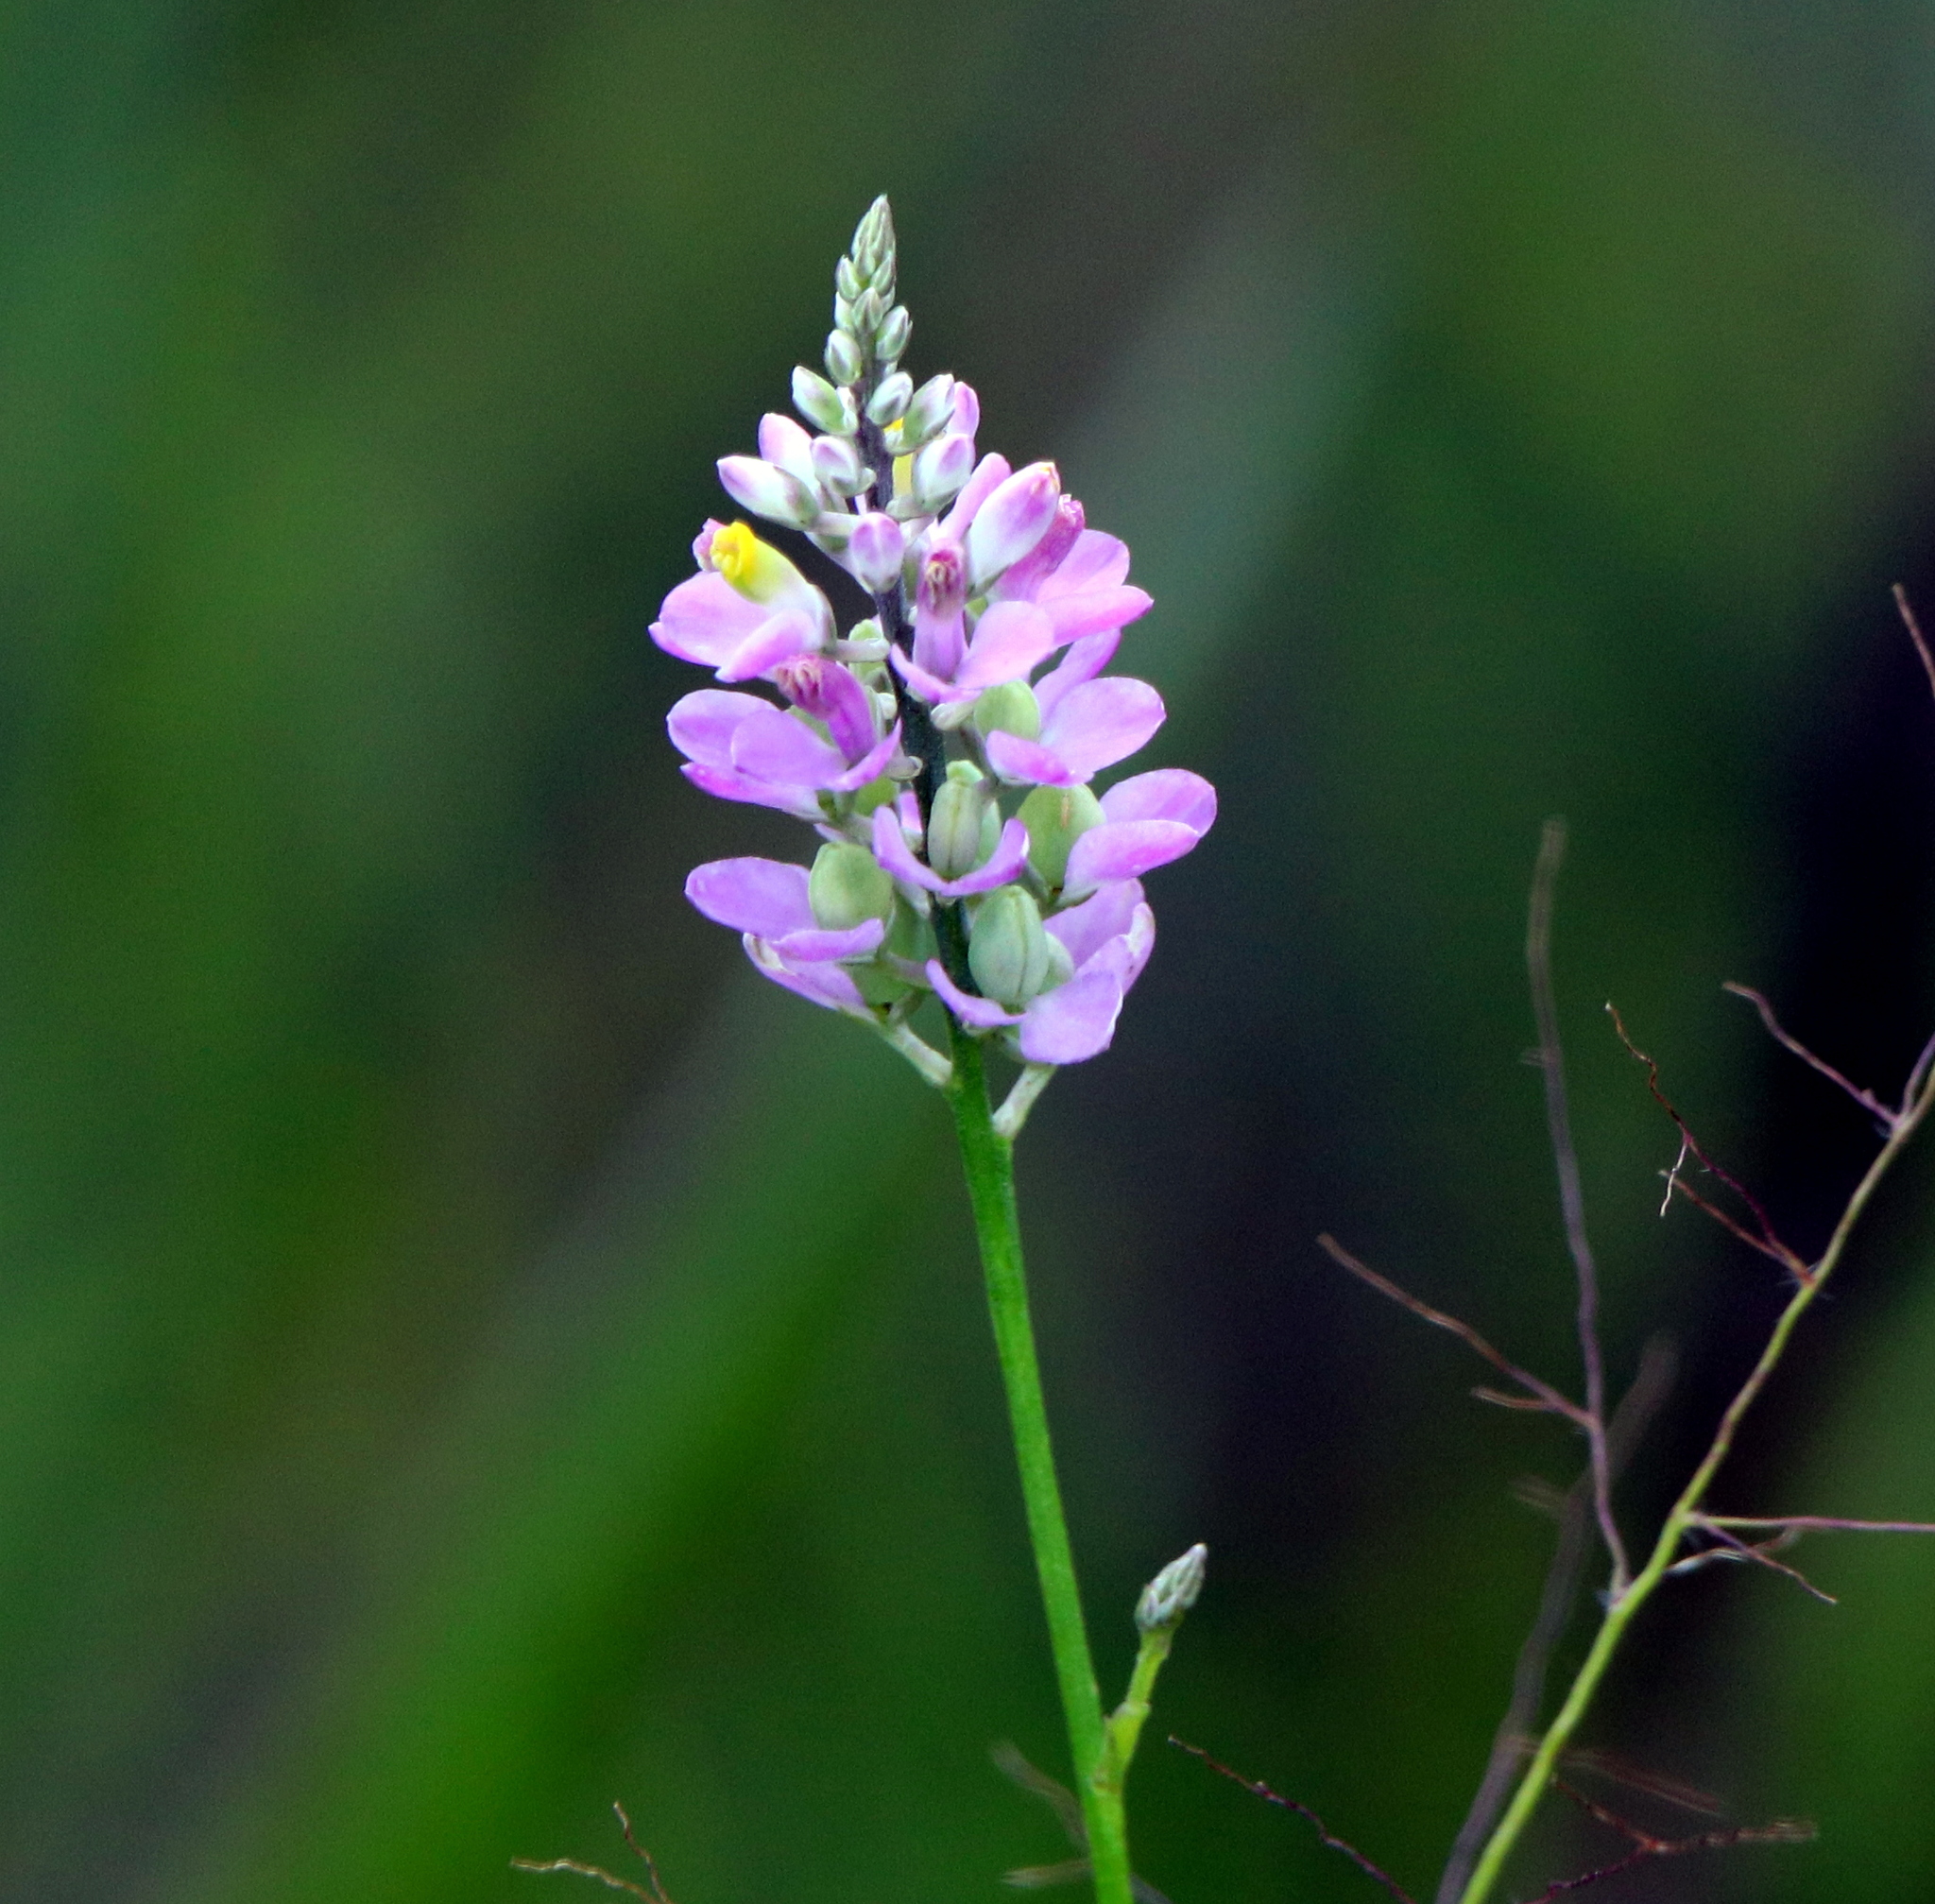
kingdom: Plantae
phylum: Tracheophyta
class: Magnoliopsida
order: Fabales
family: Polygalaceae
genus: Polygala
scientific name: Polygala chapmanii
